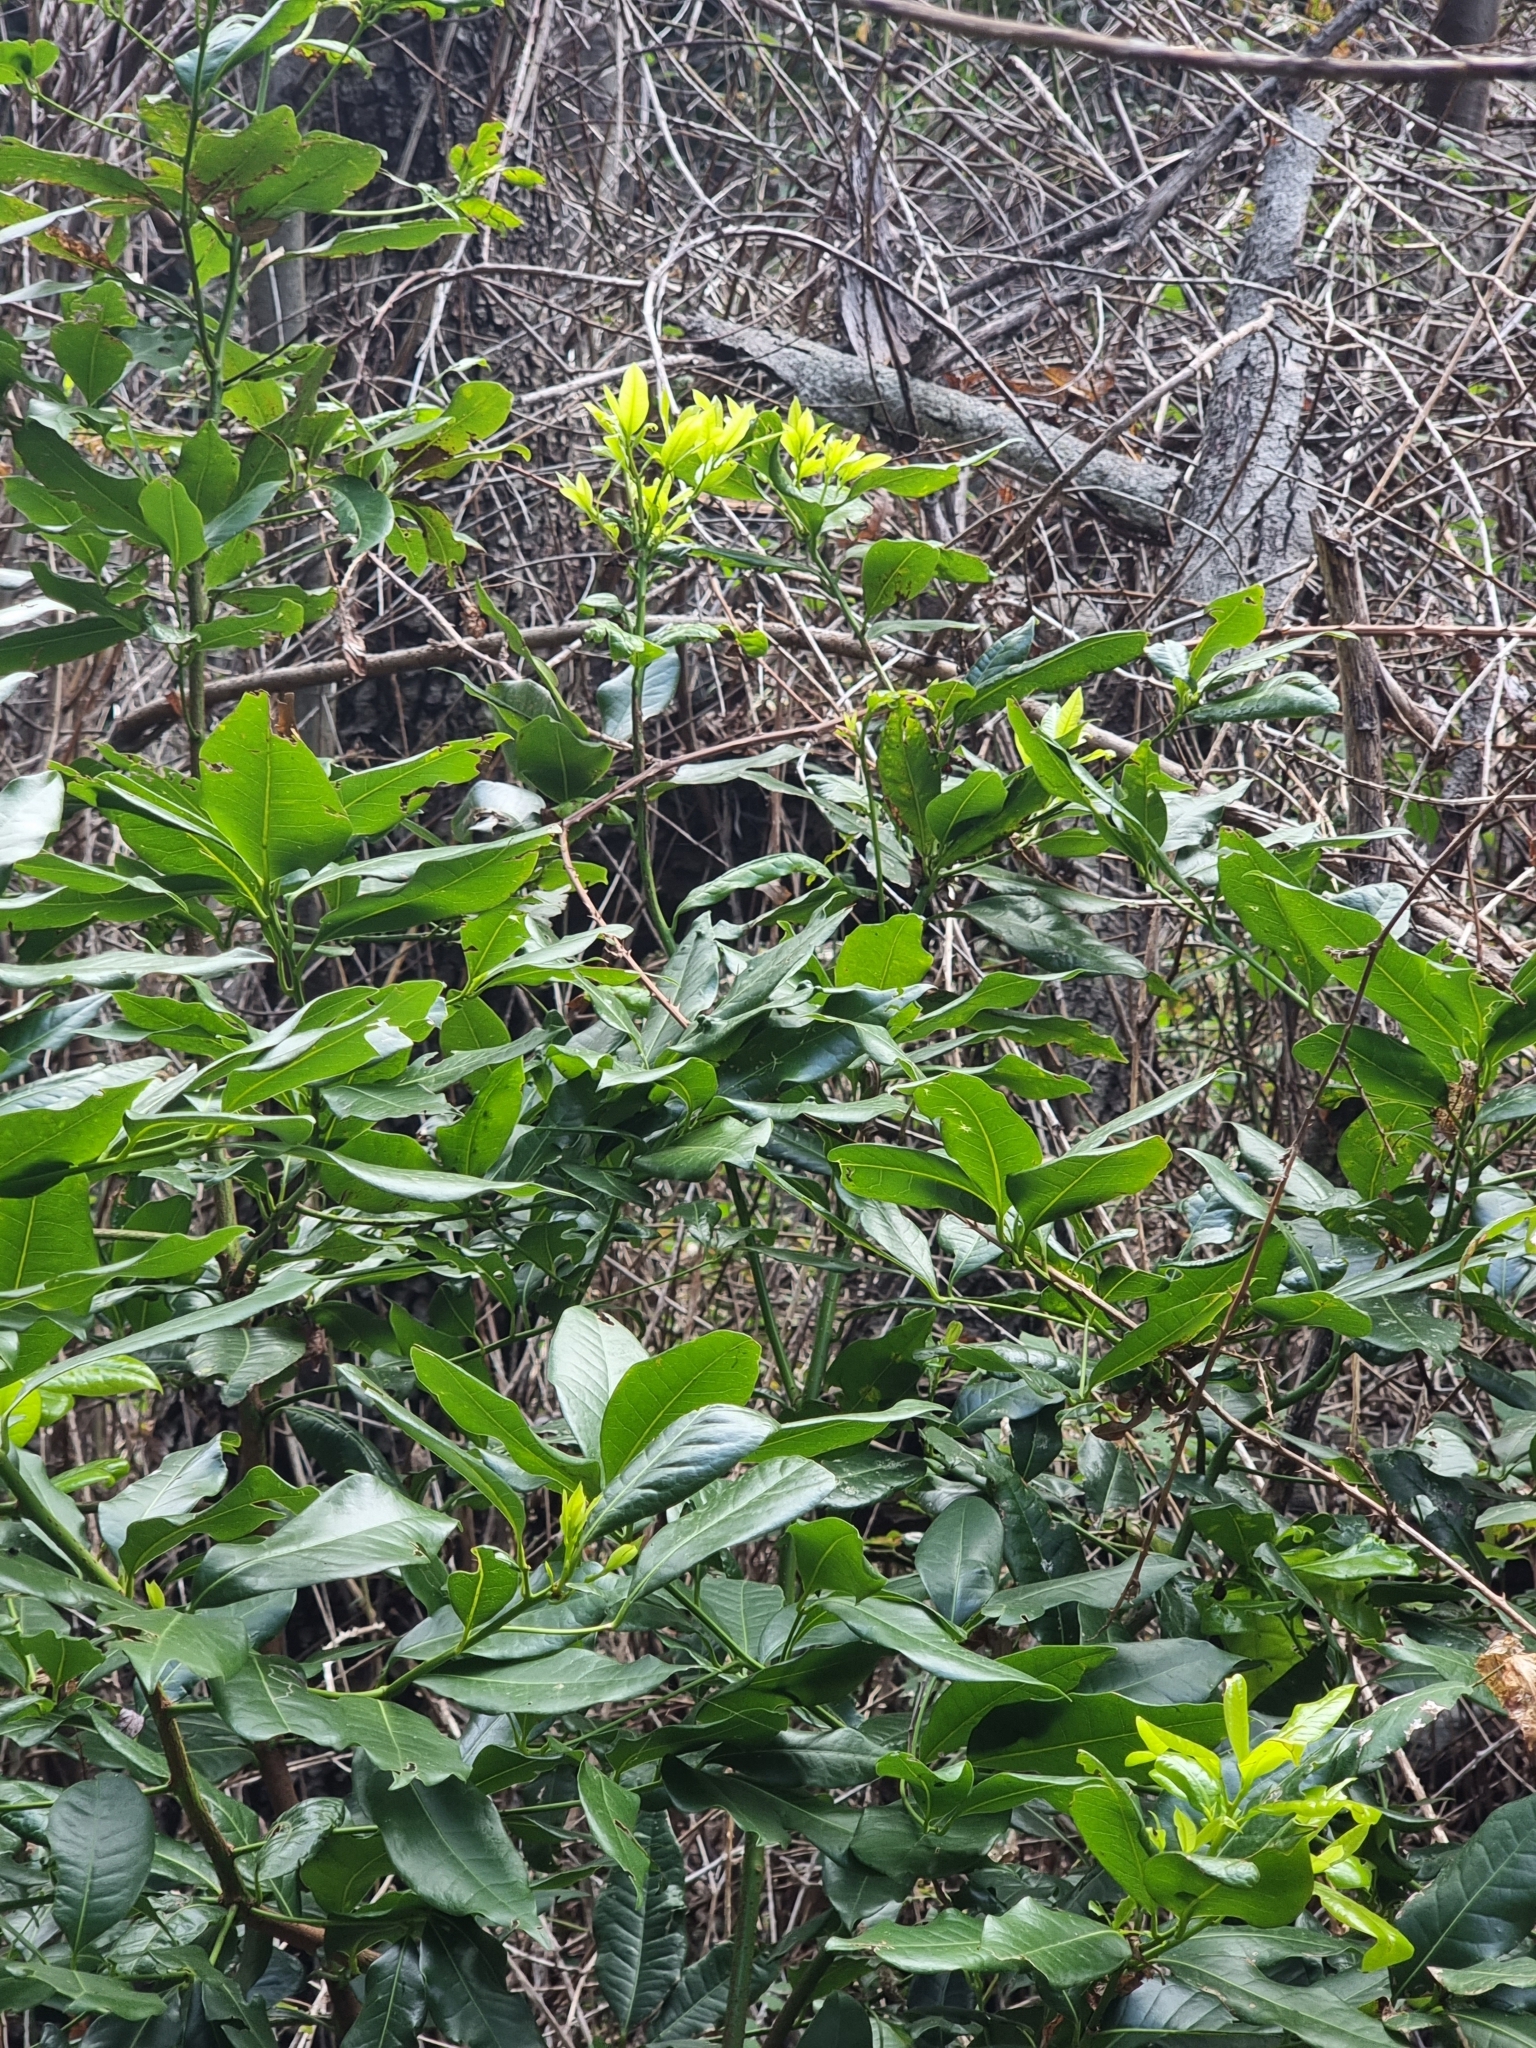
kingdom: Plantae
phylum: Tracheophyta
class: Magnoliopsida
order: Laurales
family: Lauraceae
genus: Apollonias
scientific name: Apollonias barbujana
